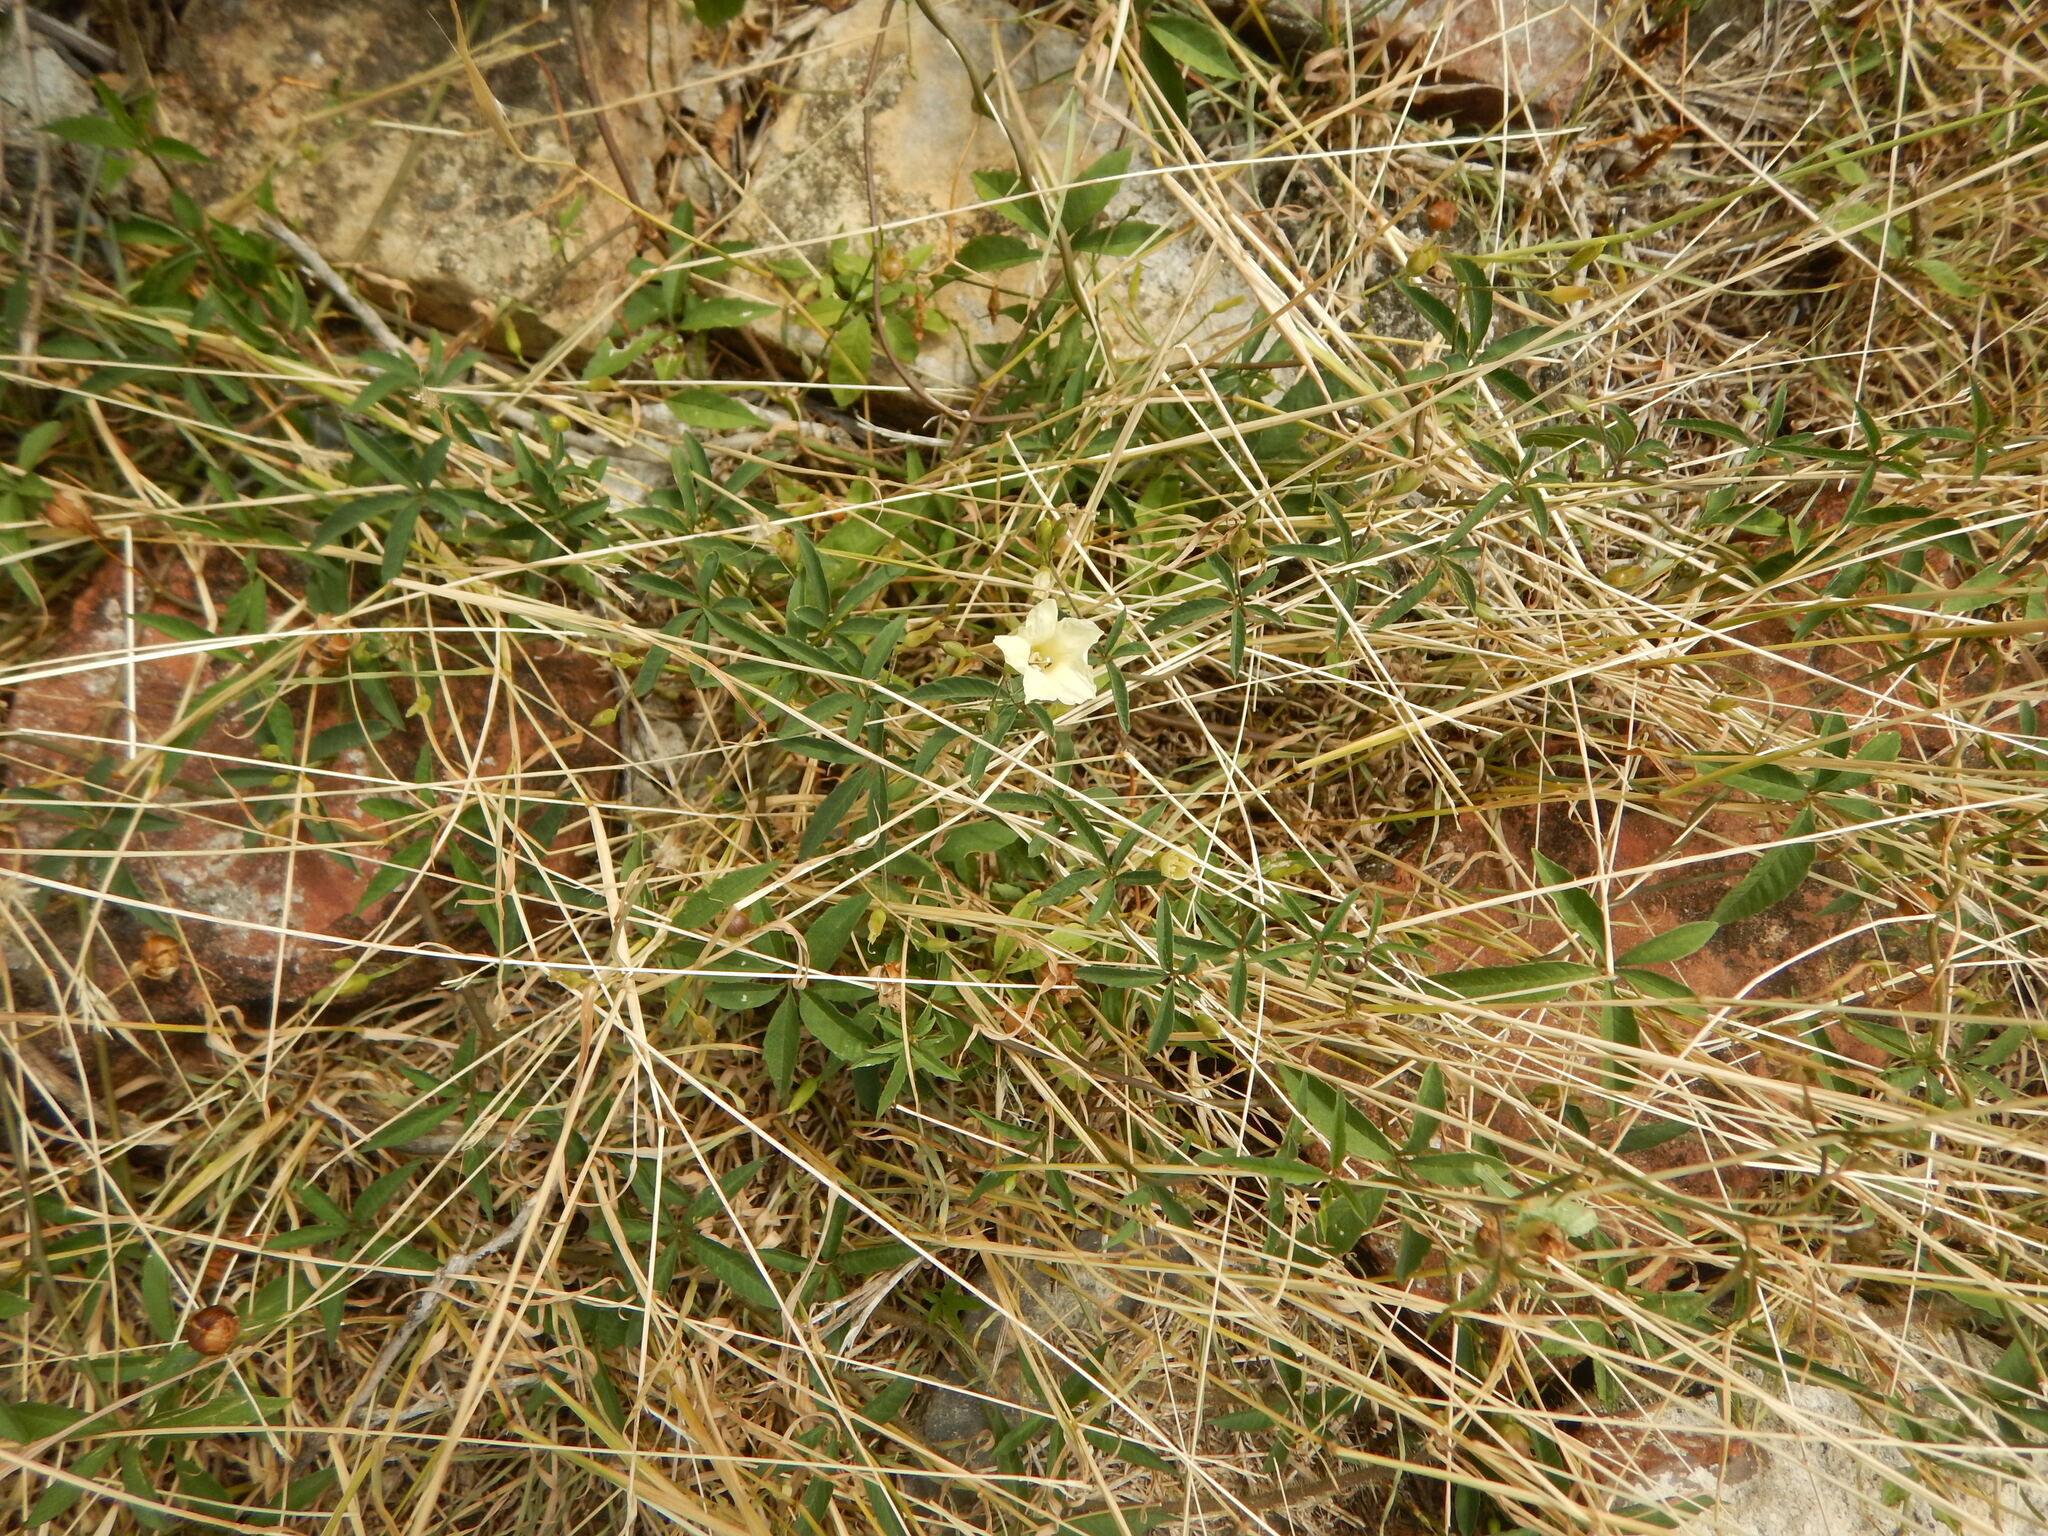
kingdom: Plantae
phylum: Tracheophyta
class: Magnoliopsida
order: Solanales
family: Convolvulaceae
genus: Distimake
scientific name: Distimake quinquefolius
